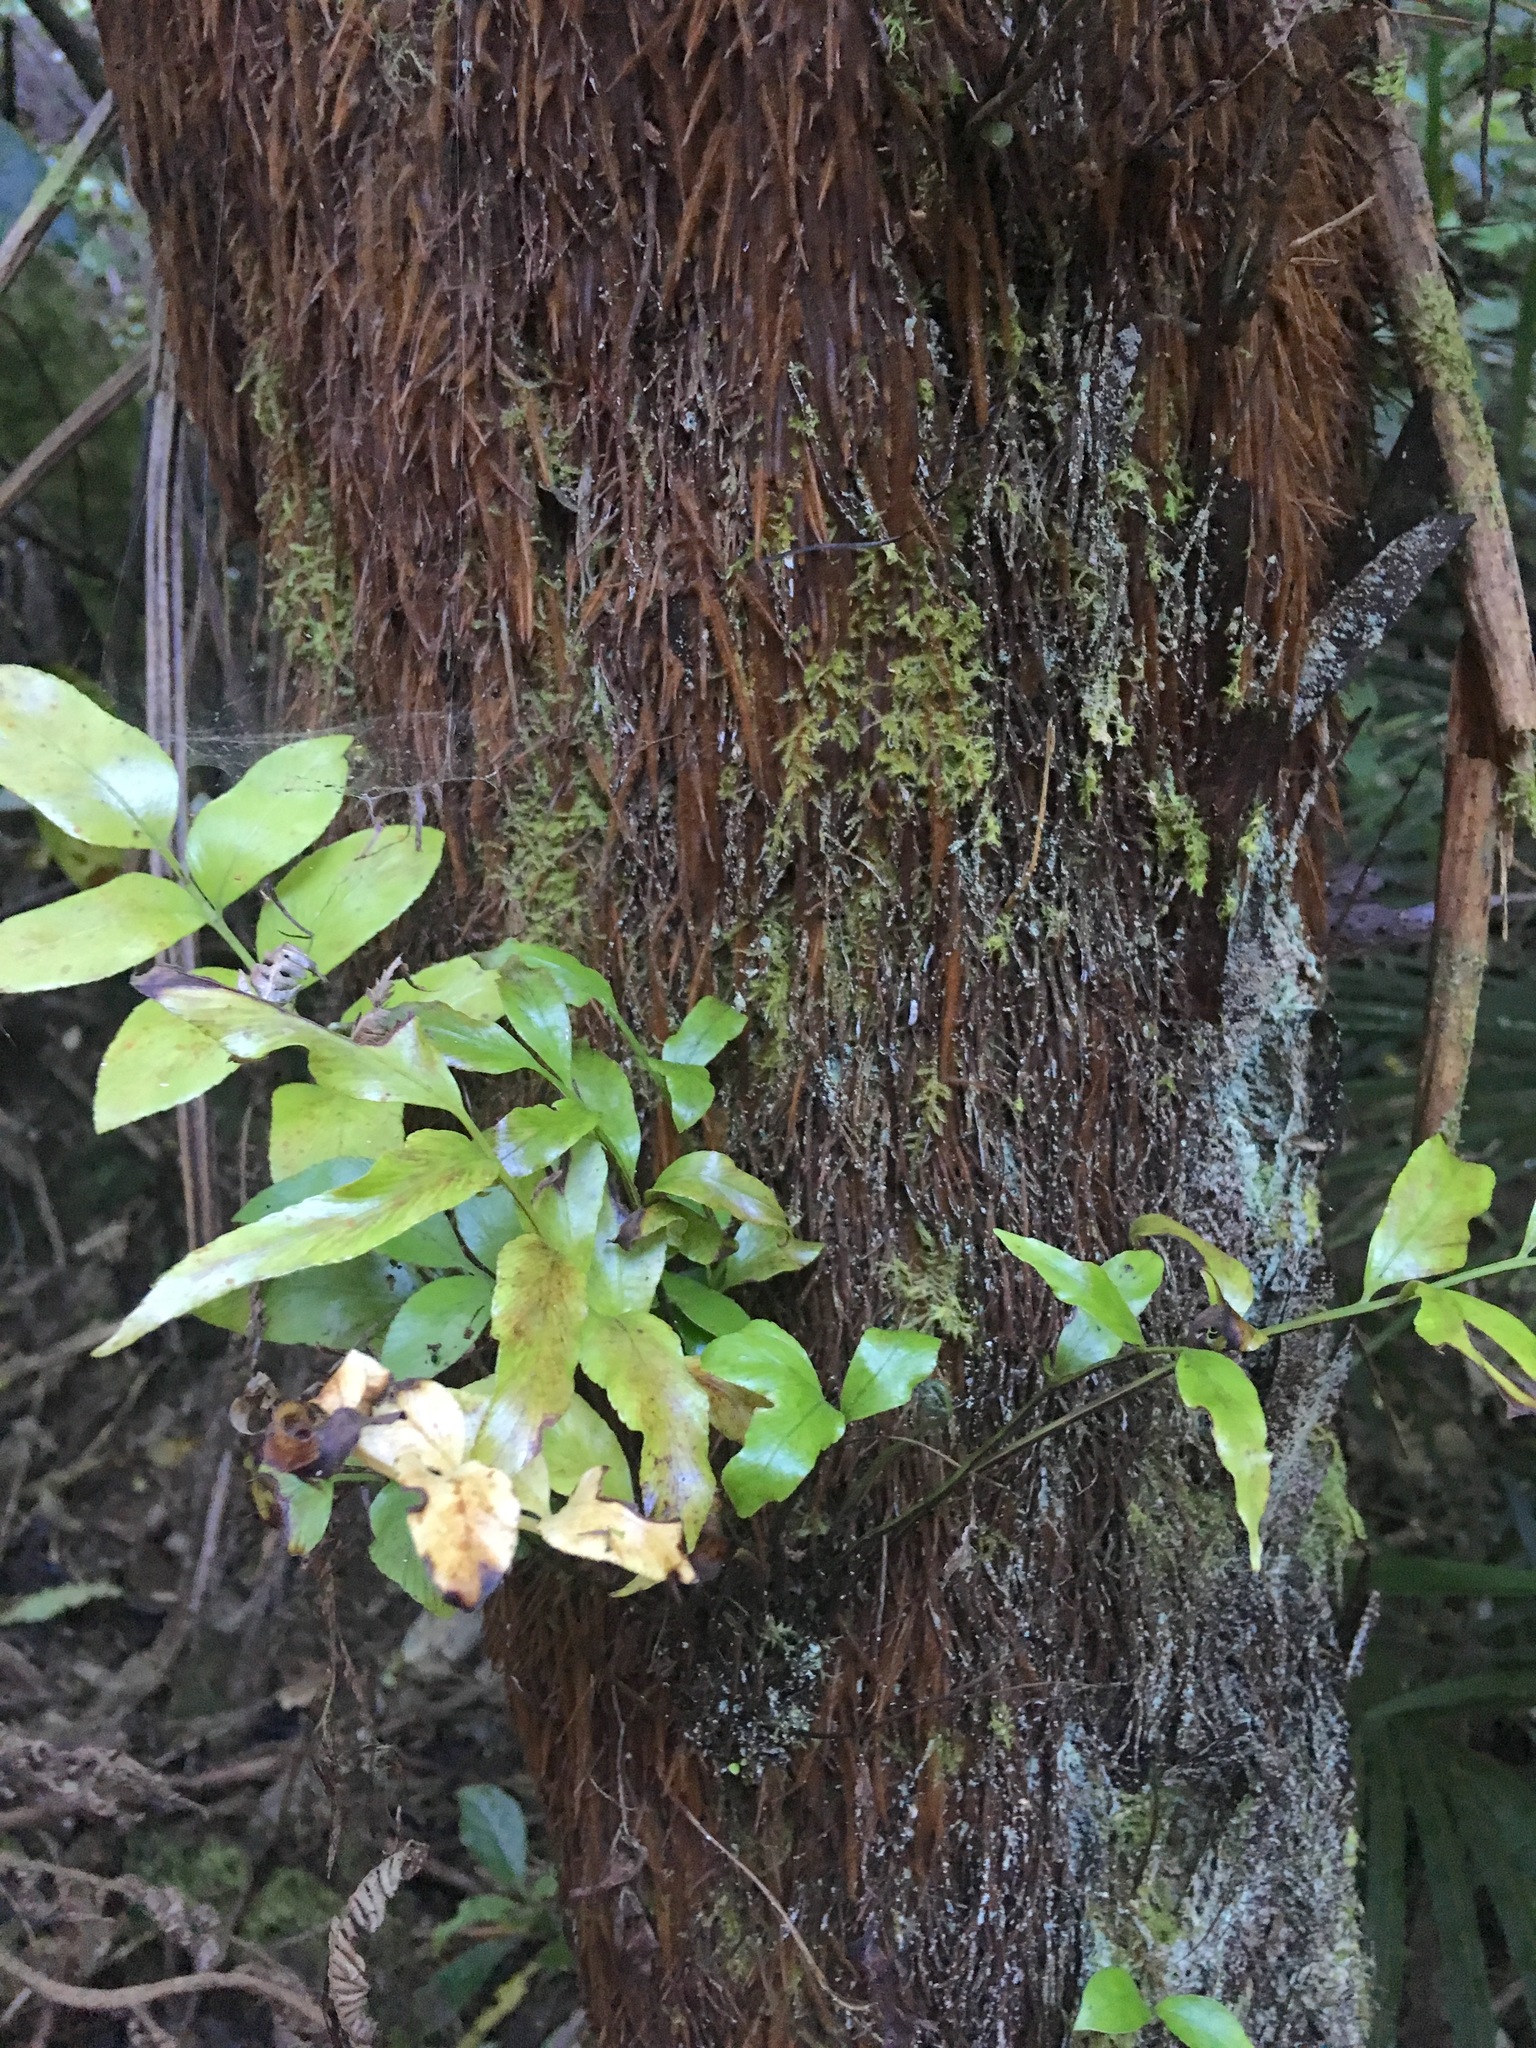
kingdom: Plantae
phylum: Tracheophyta
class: Polypodiopsida
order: Polypodiales
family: Aspleniaceae
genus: Asplenium
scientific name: Asplenium oblongifolium
